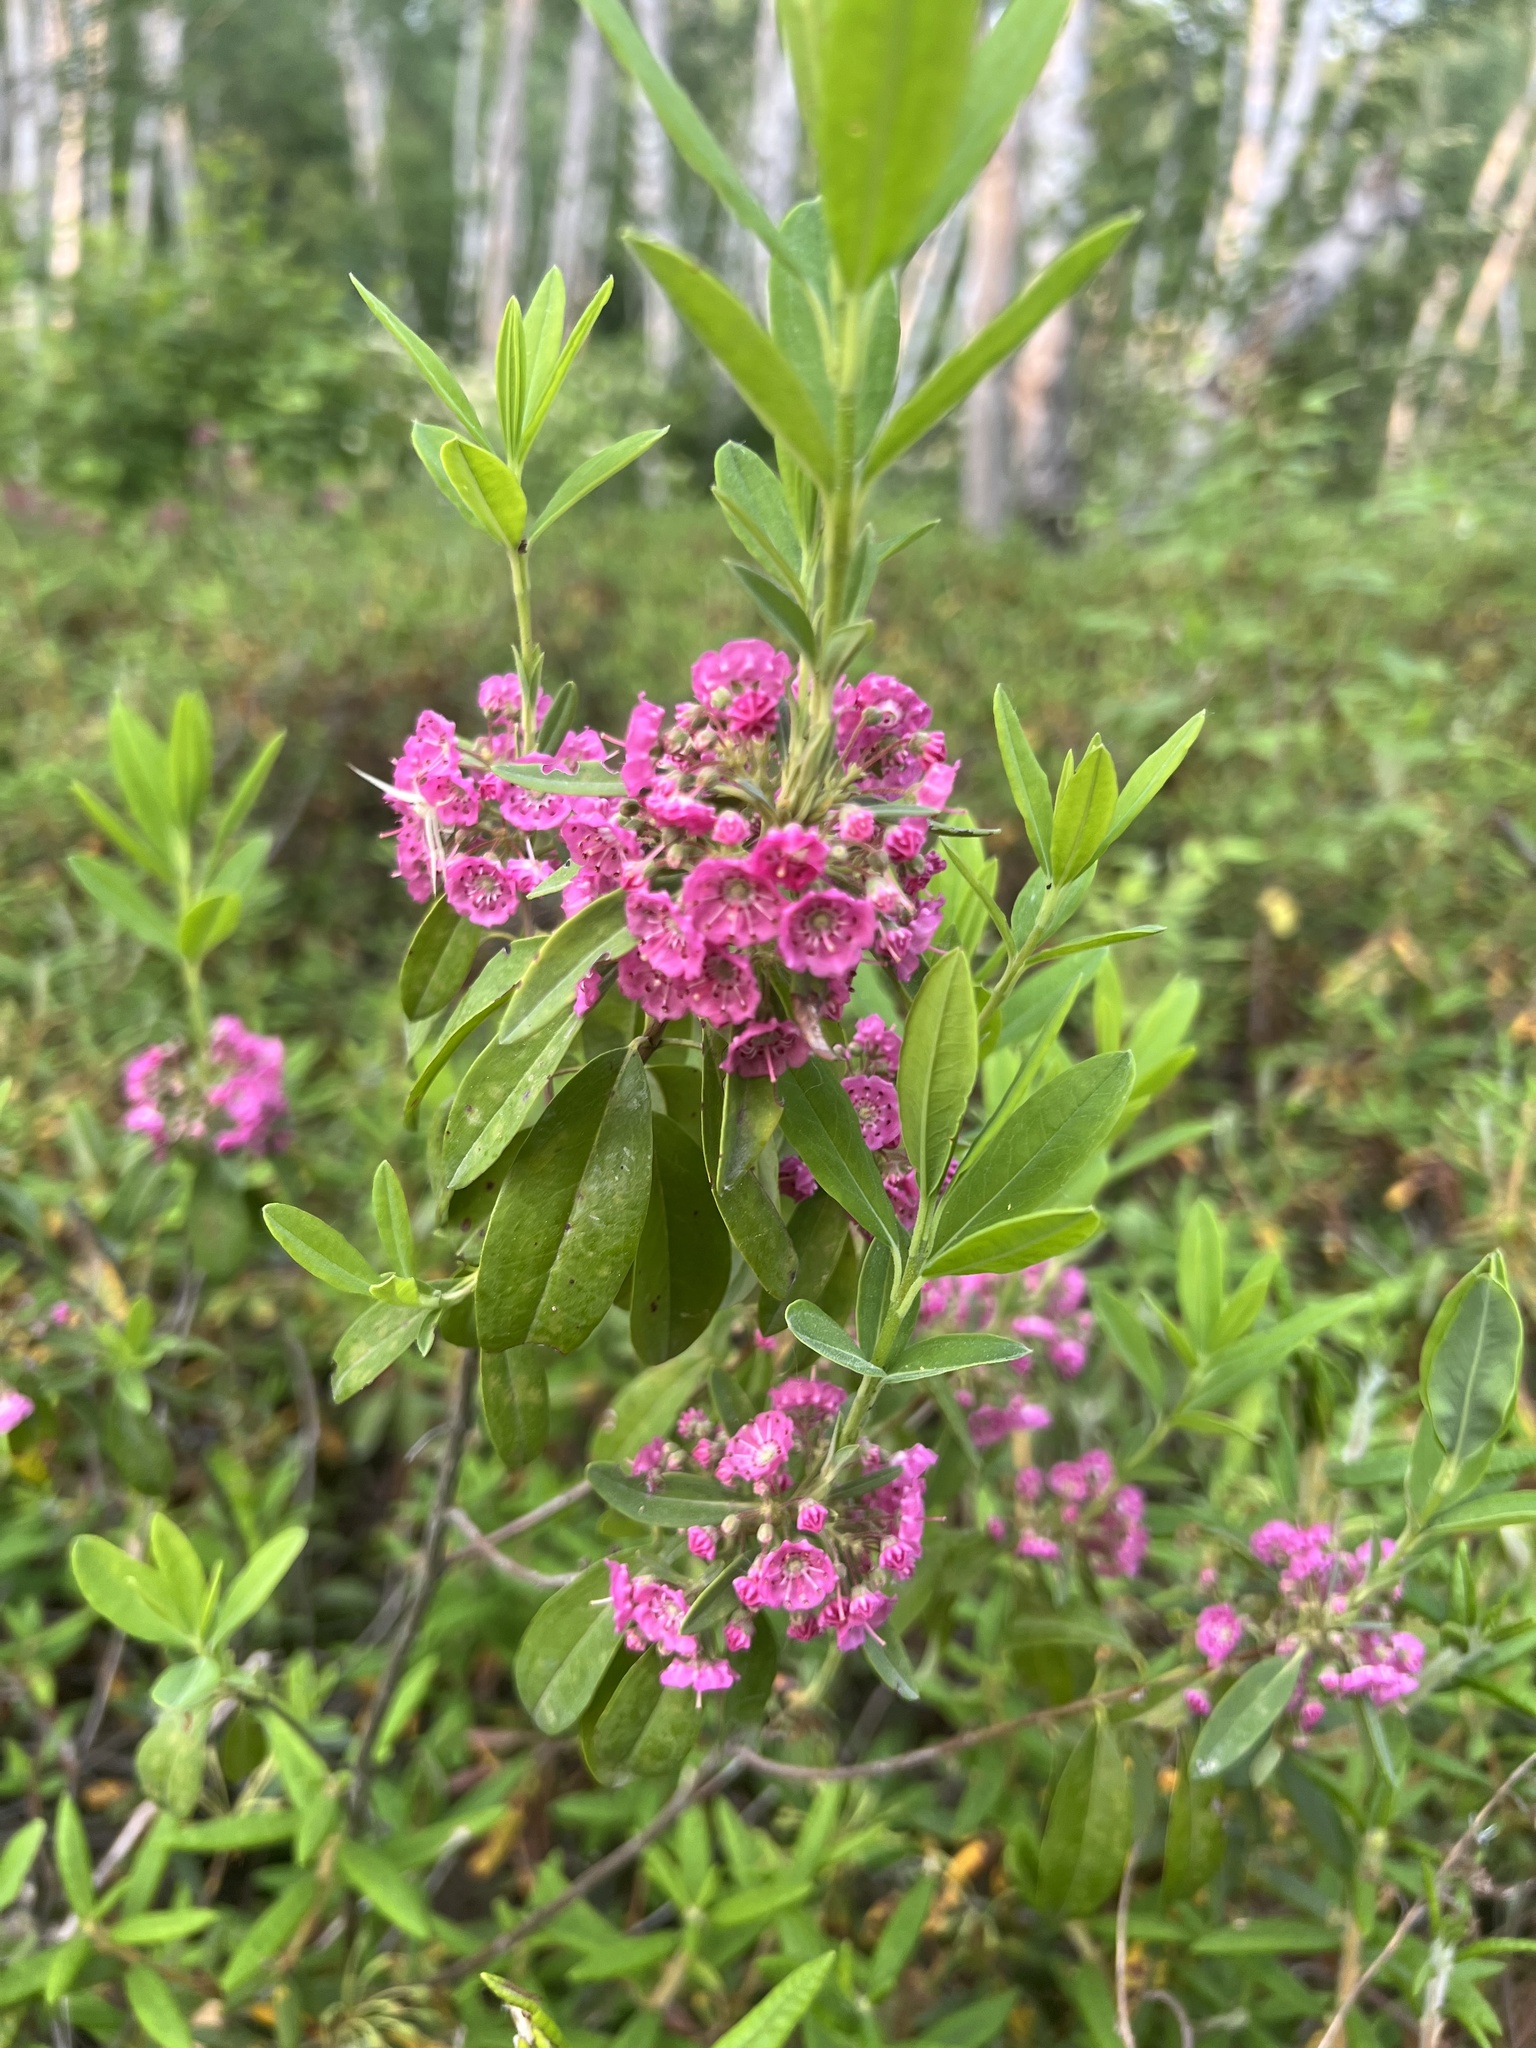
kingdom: Plantae
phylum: Tracheophyta
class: Magnoliopsida
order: Ericales
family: Ericaceae
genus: Kalmia
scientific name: Kalmia angustifolia
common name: Sheep-laurel
